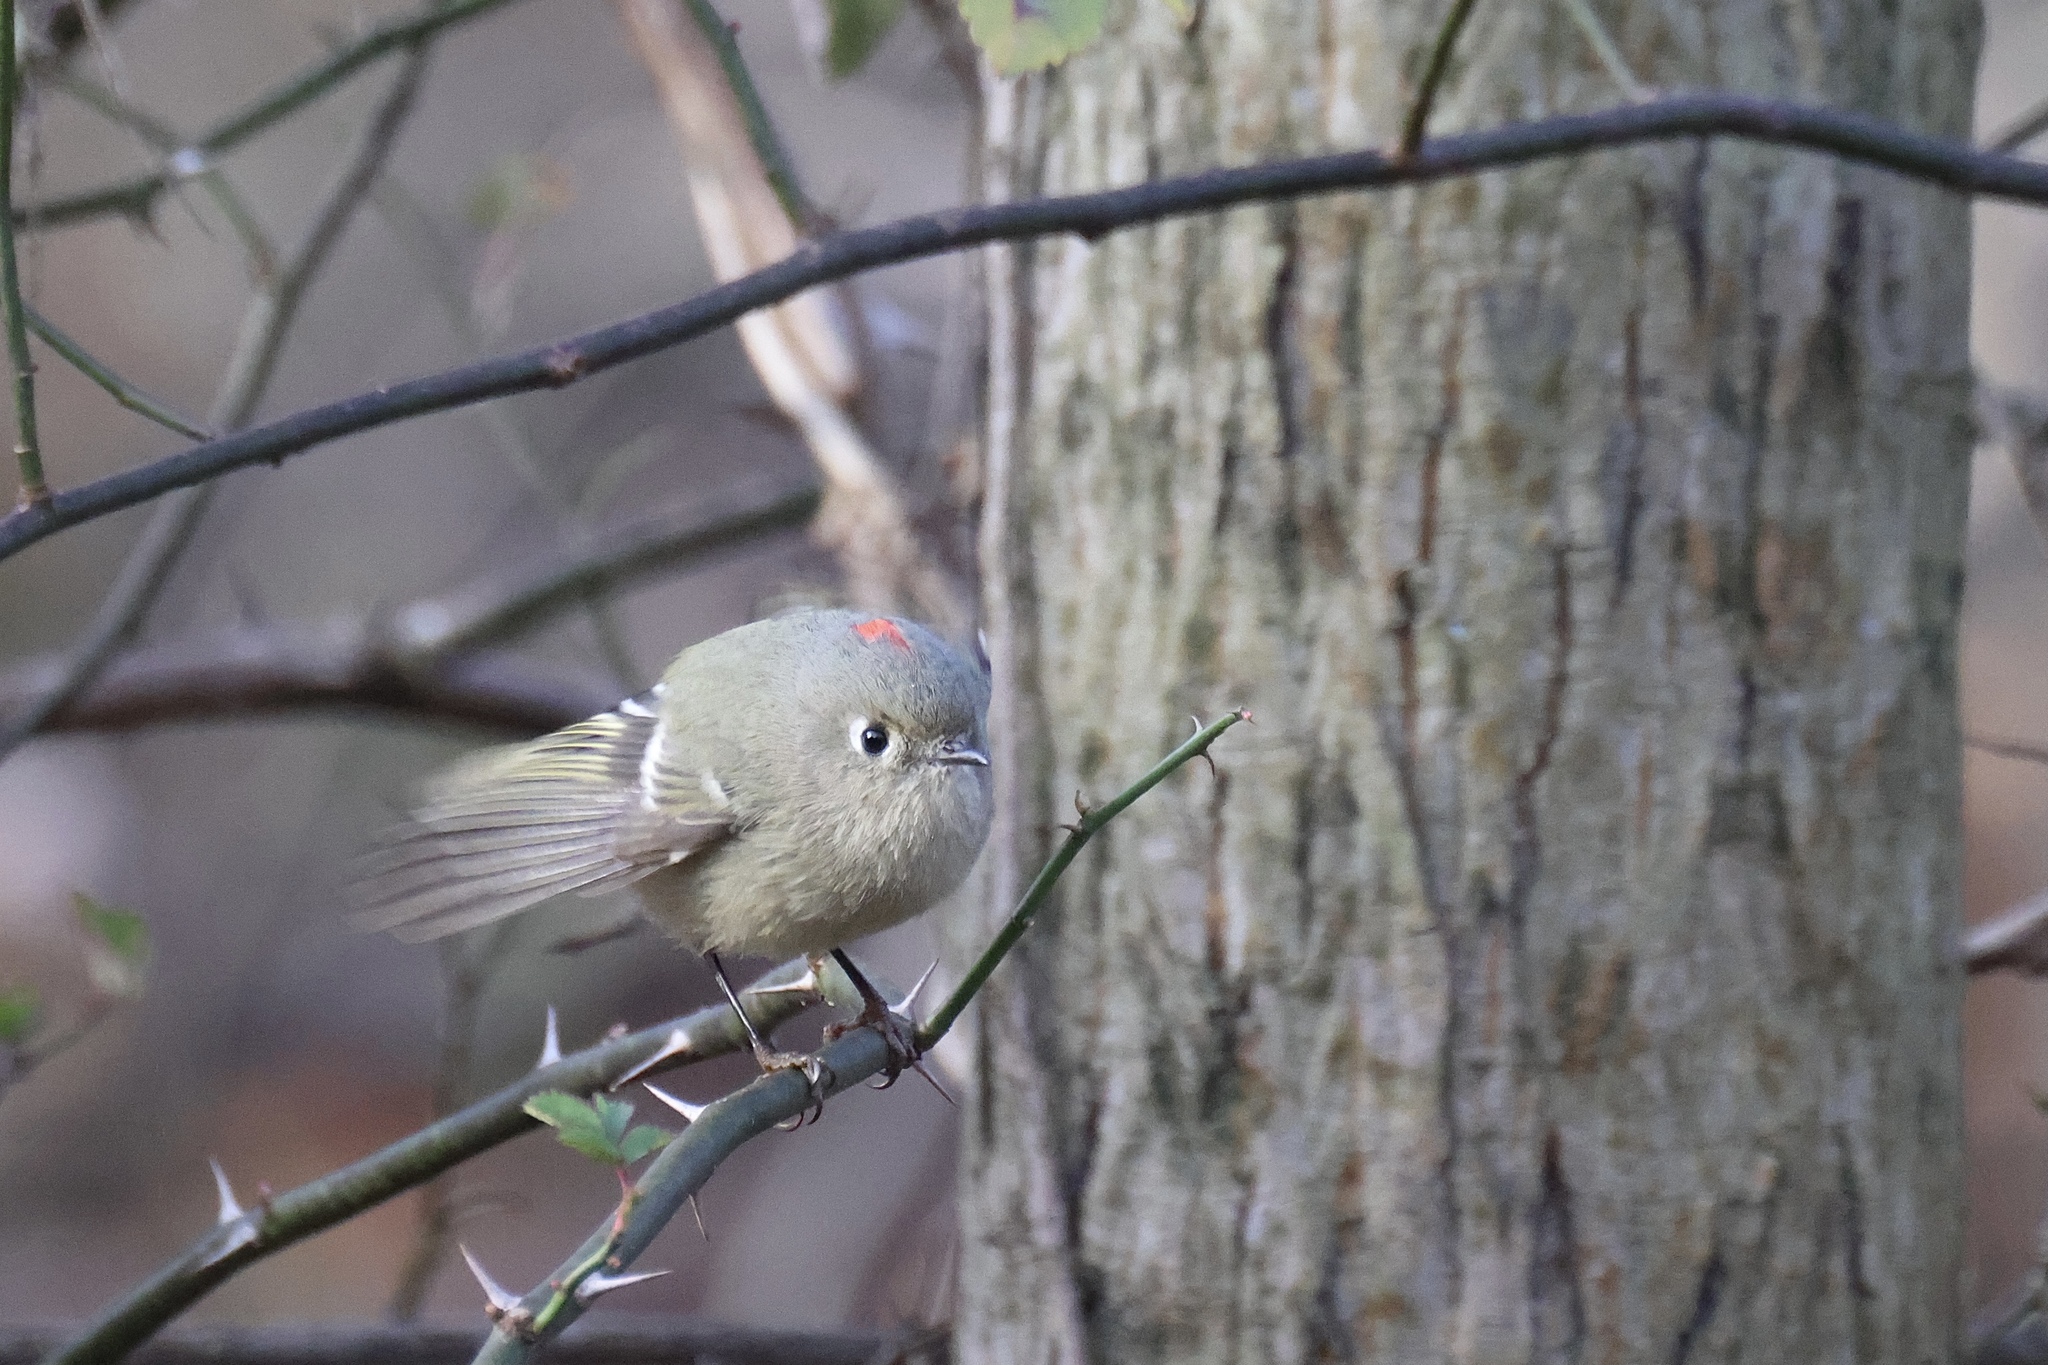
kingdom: Animalia
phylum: Chordata
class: Aves
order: Passeriformes
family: Regulidae
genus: Regulus
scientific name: Regulus calendula
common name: Ruby-crowned kinglet
